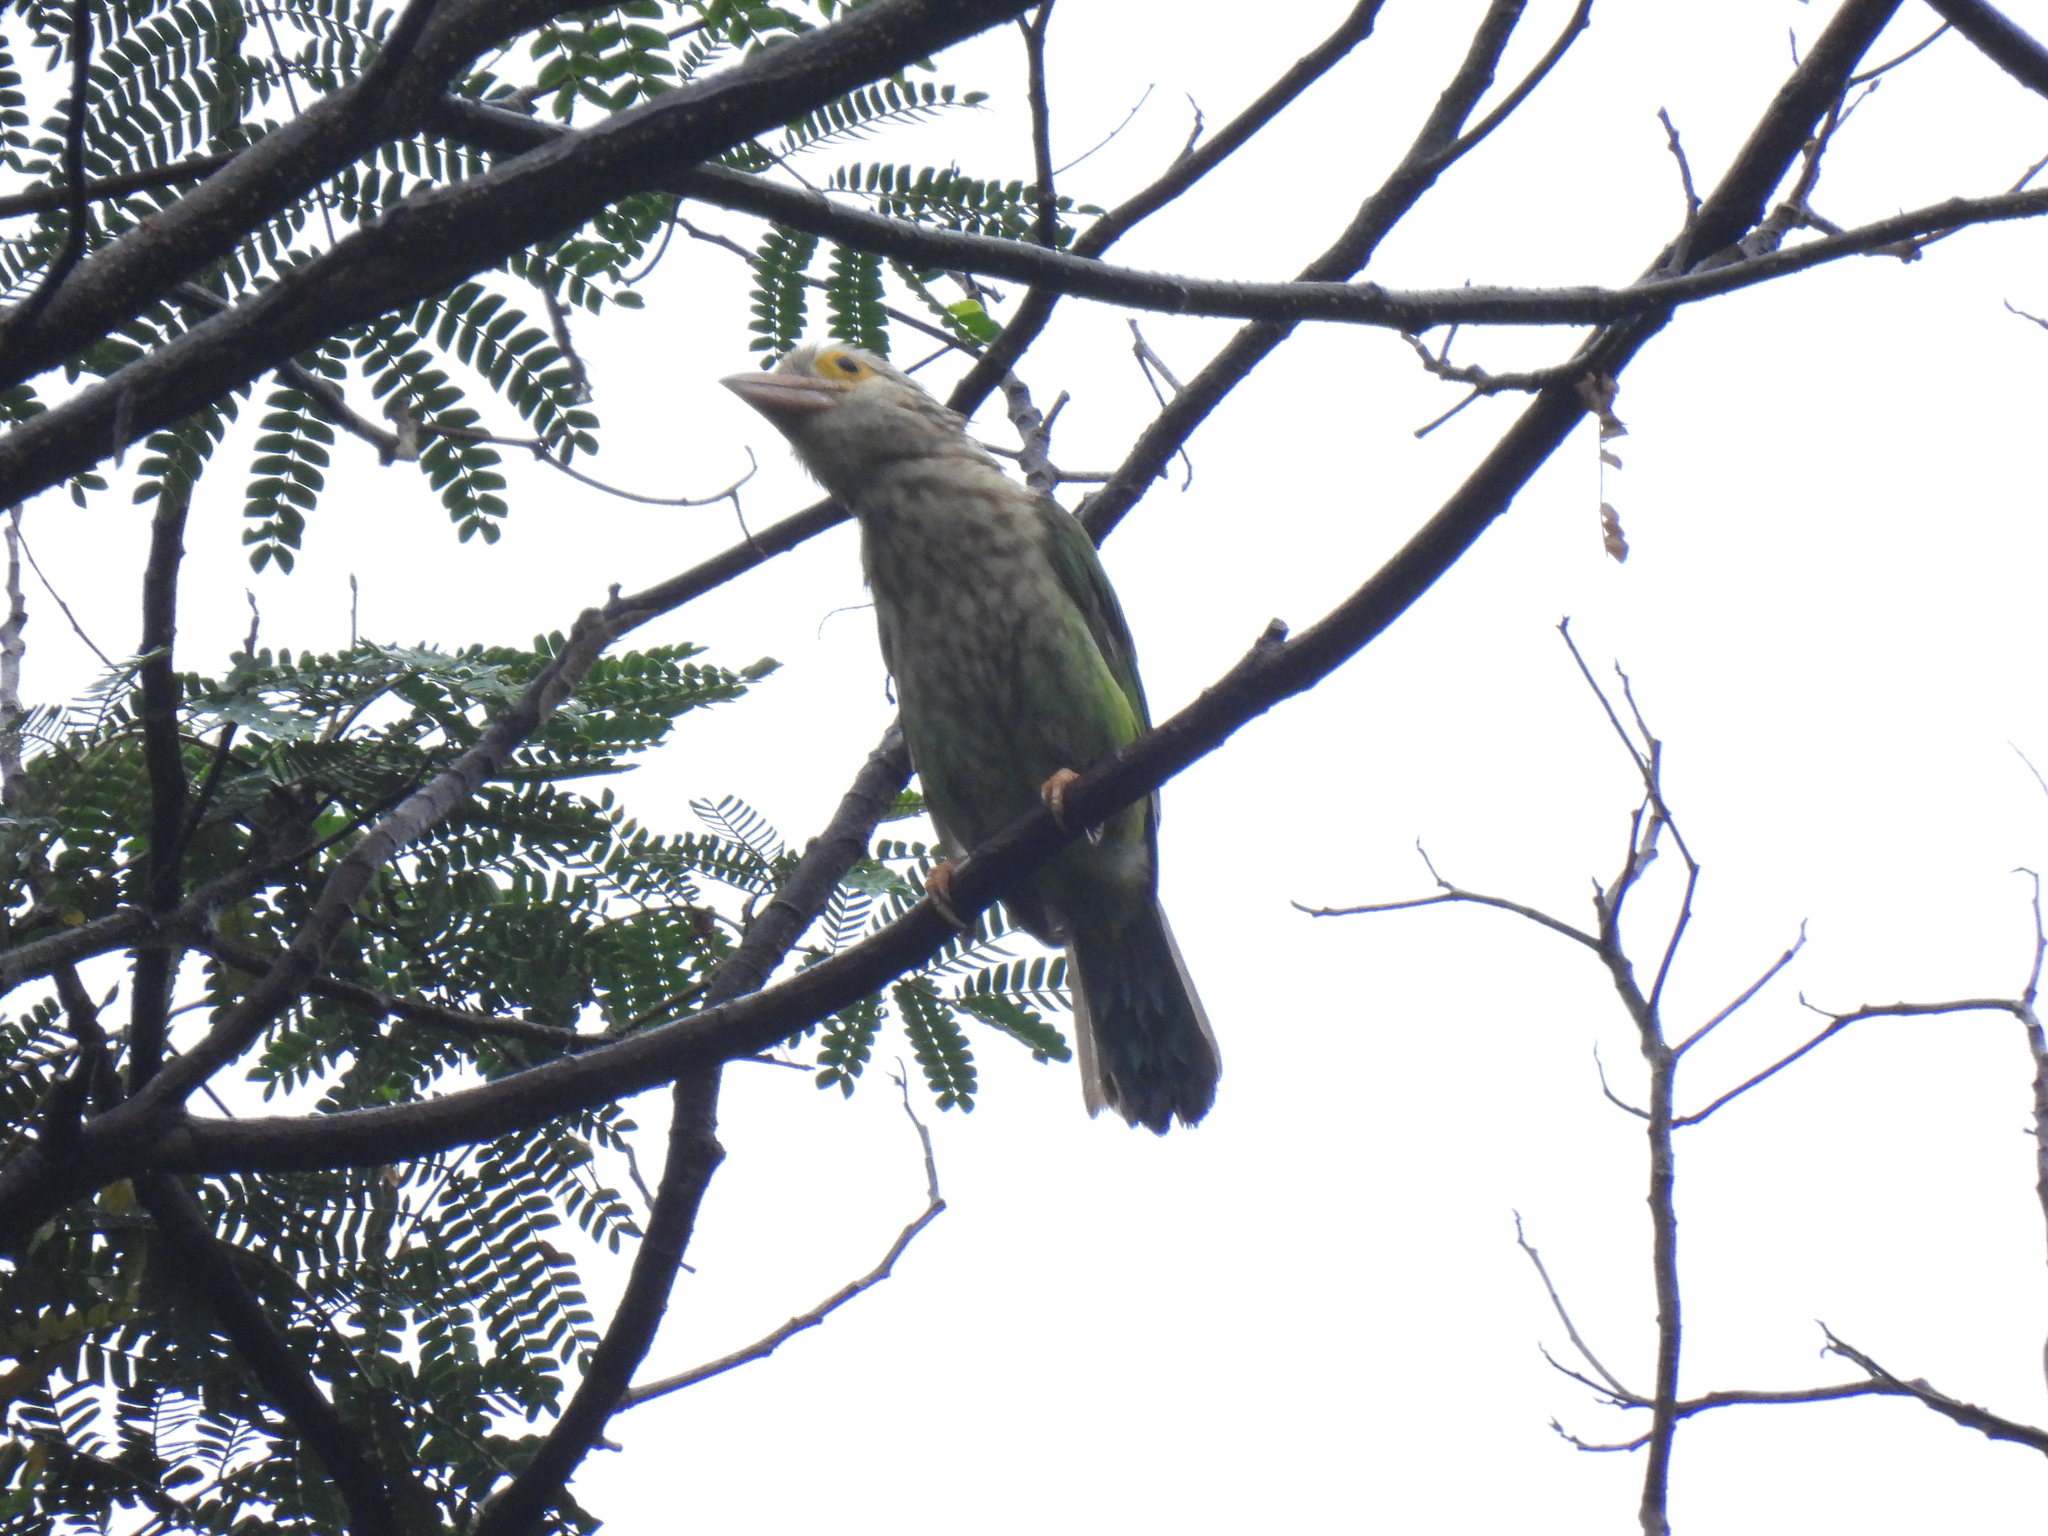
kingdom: Animalia
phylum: Chordata
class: Aves
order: Piciformes
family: Megalaimidae
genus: Psilopogon
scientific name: Psilopogon lineatus
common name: Lineated barbet
